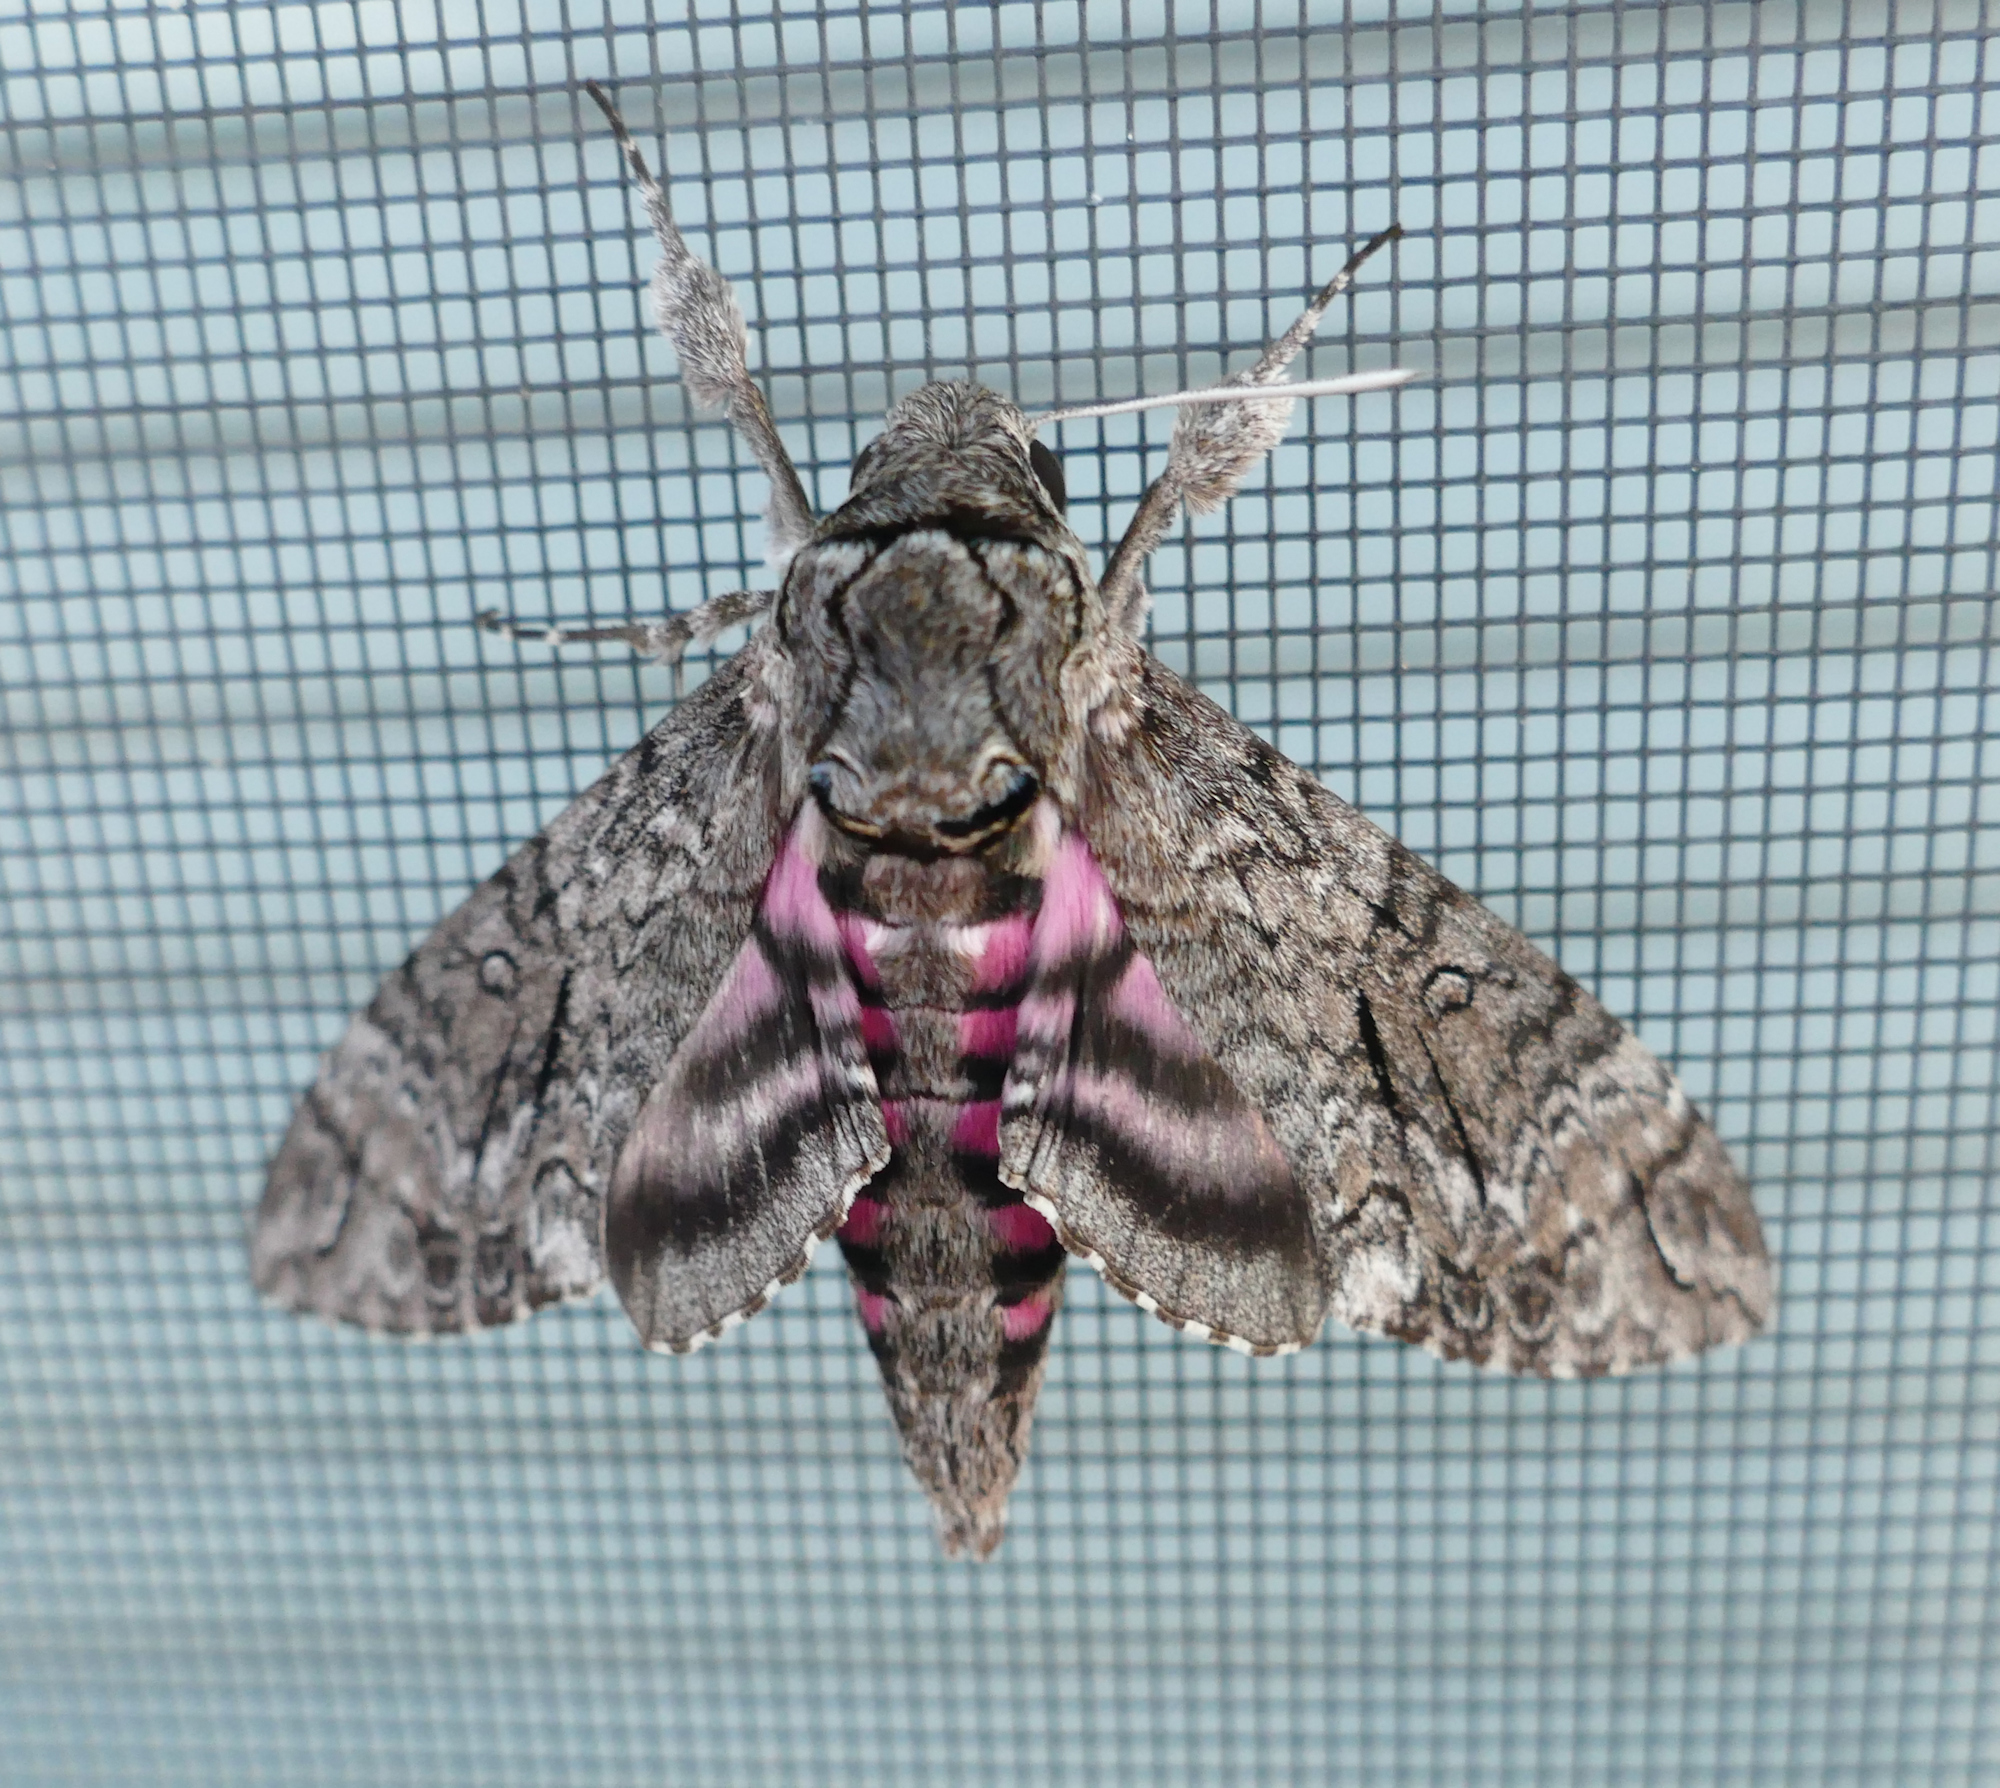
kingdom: Animalia
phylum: Arthropoda
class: Insecta
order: Lepidoptera
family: Sphingidae
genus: Agrius
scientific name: Agrius cingulata
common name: Pink-spotted hawkmoth
